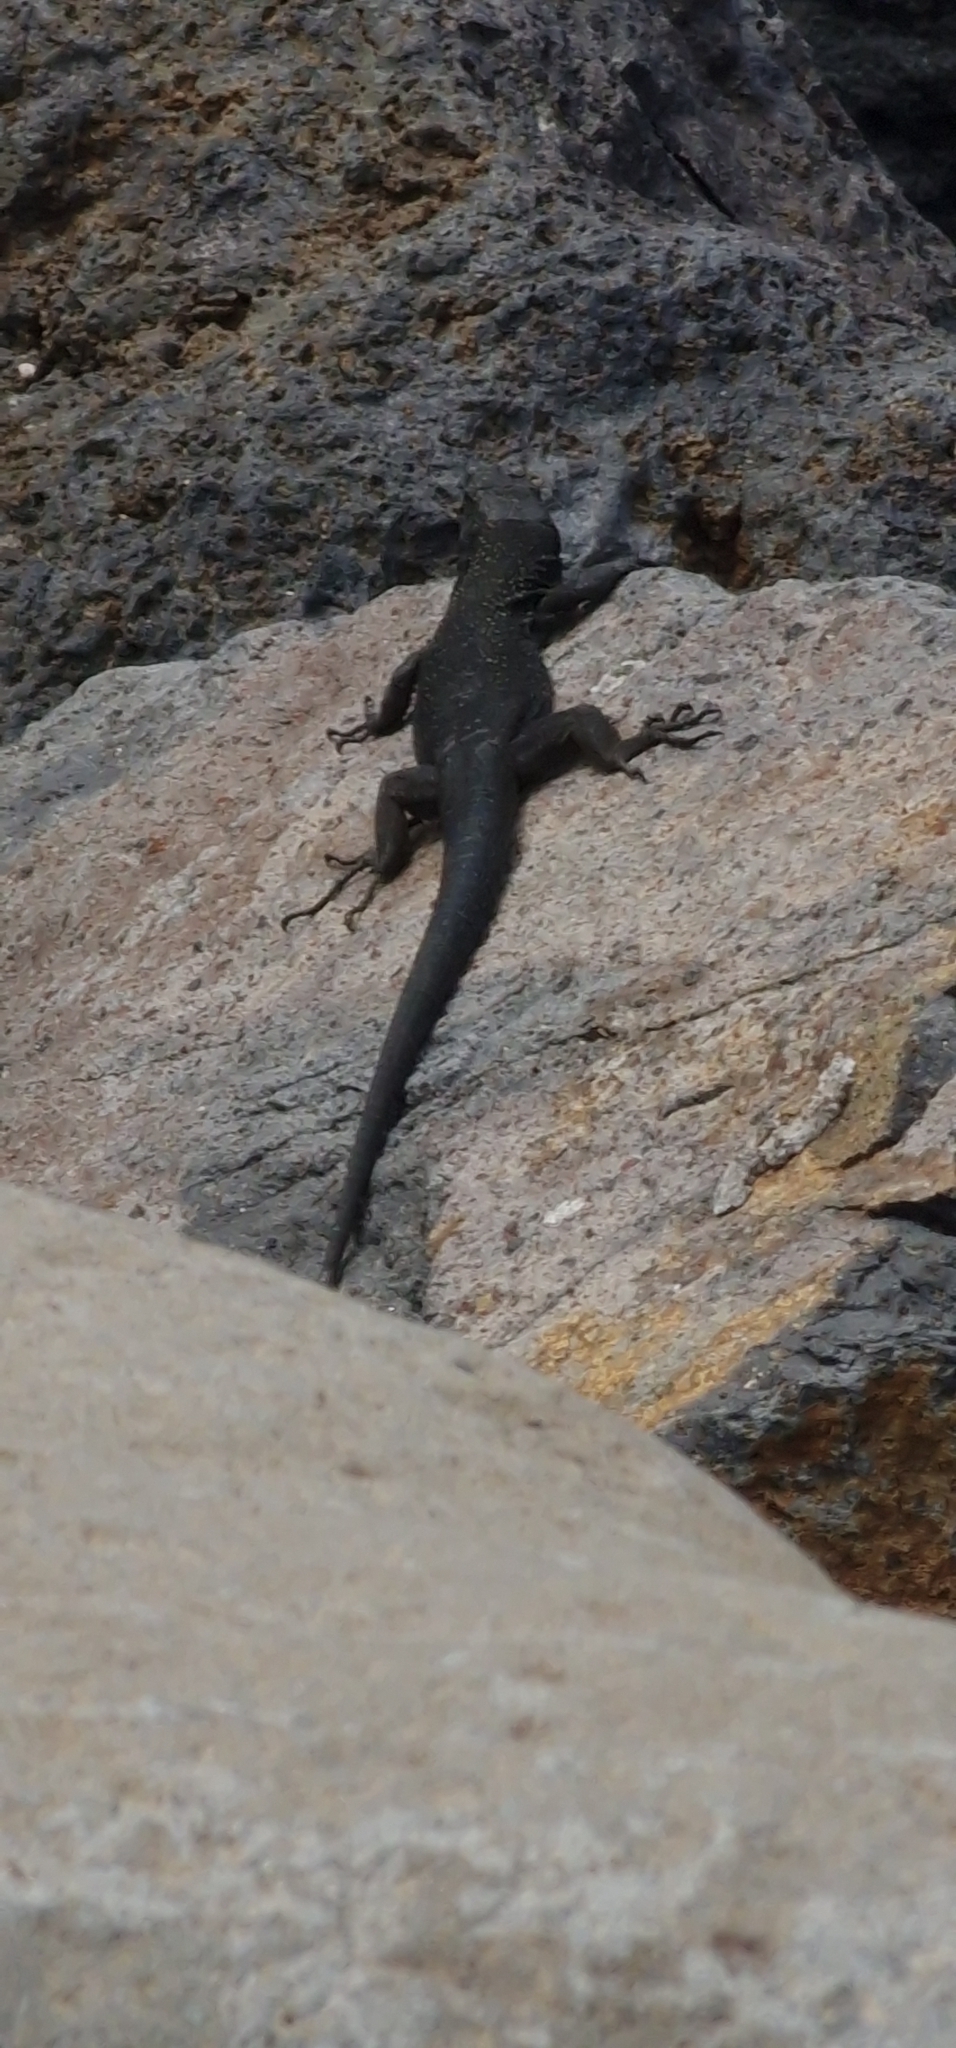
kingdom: Animalia
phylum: Chordata
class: Squamata
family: Lacertidae
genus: Teira
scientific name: Teira dugesii
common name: Madeira lizard
